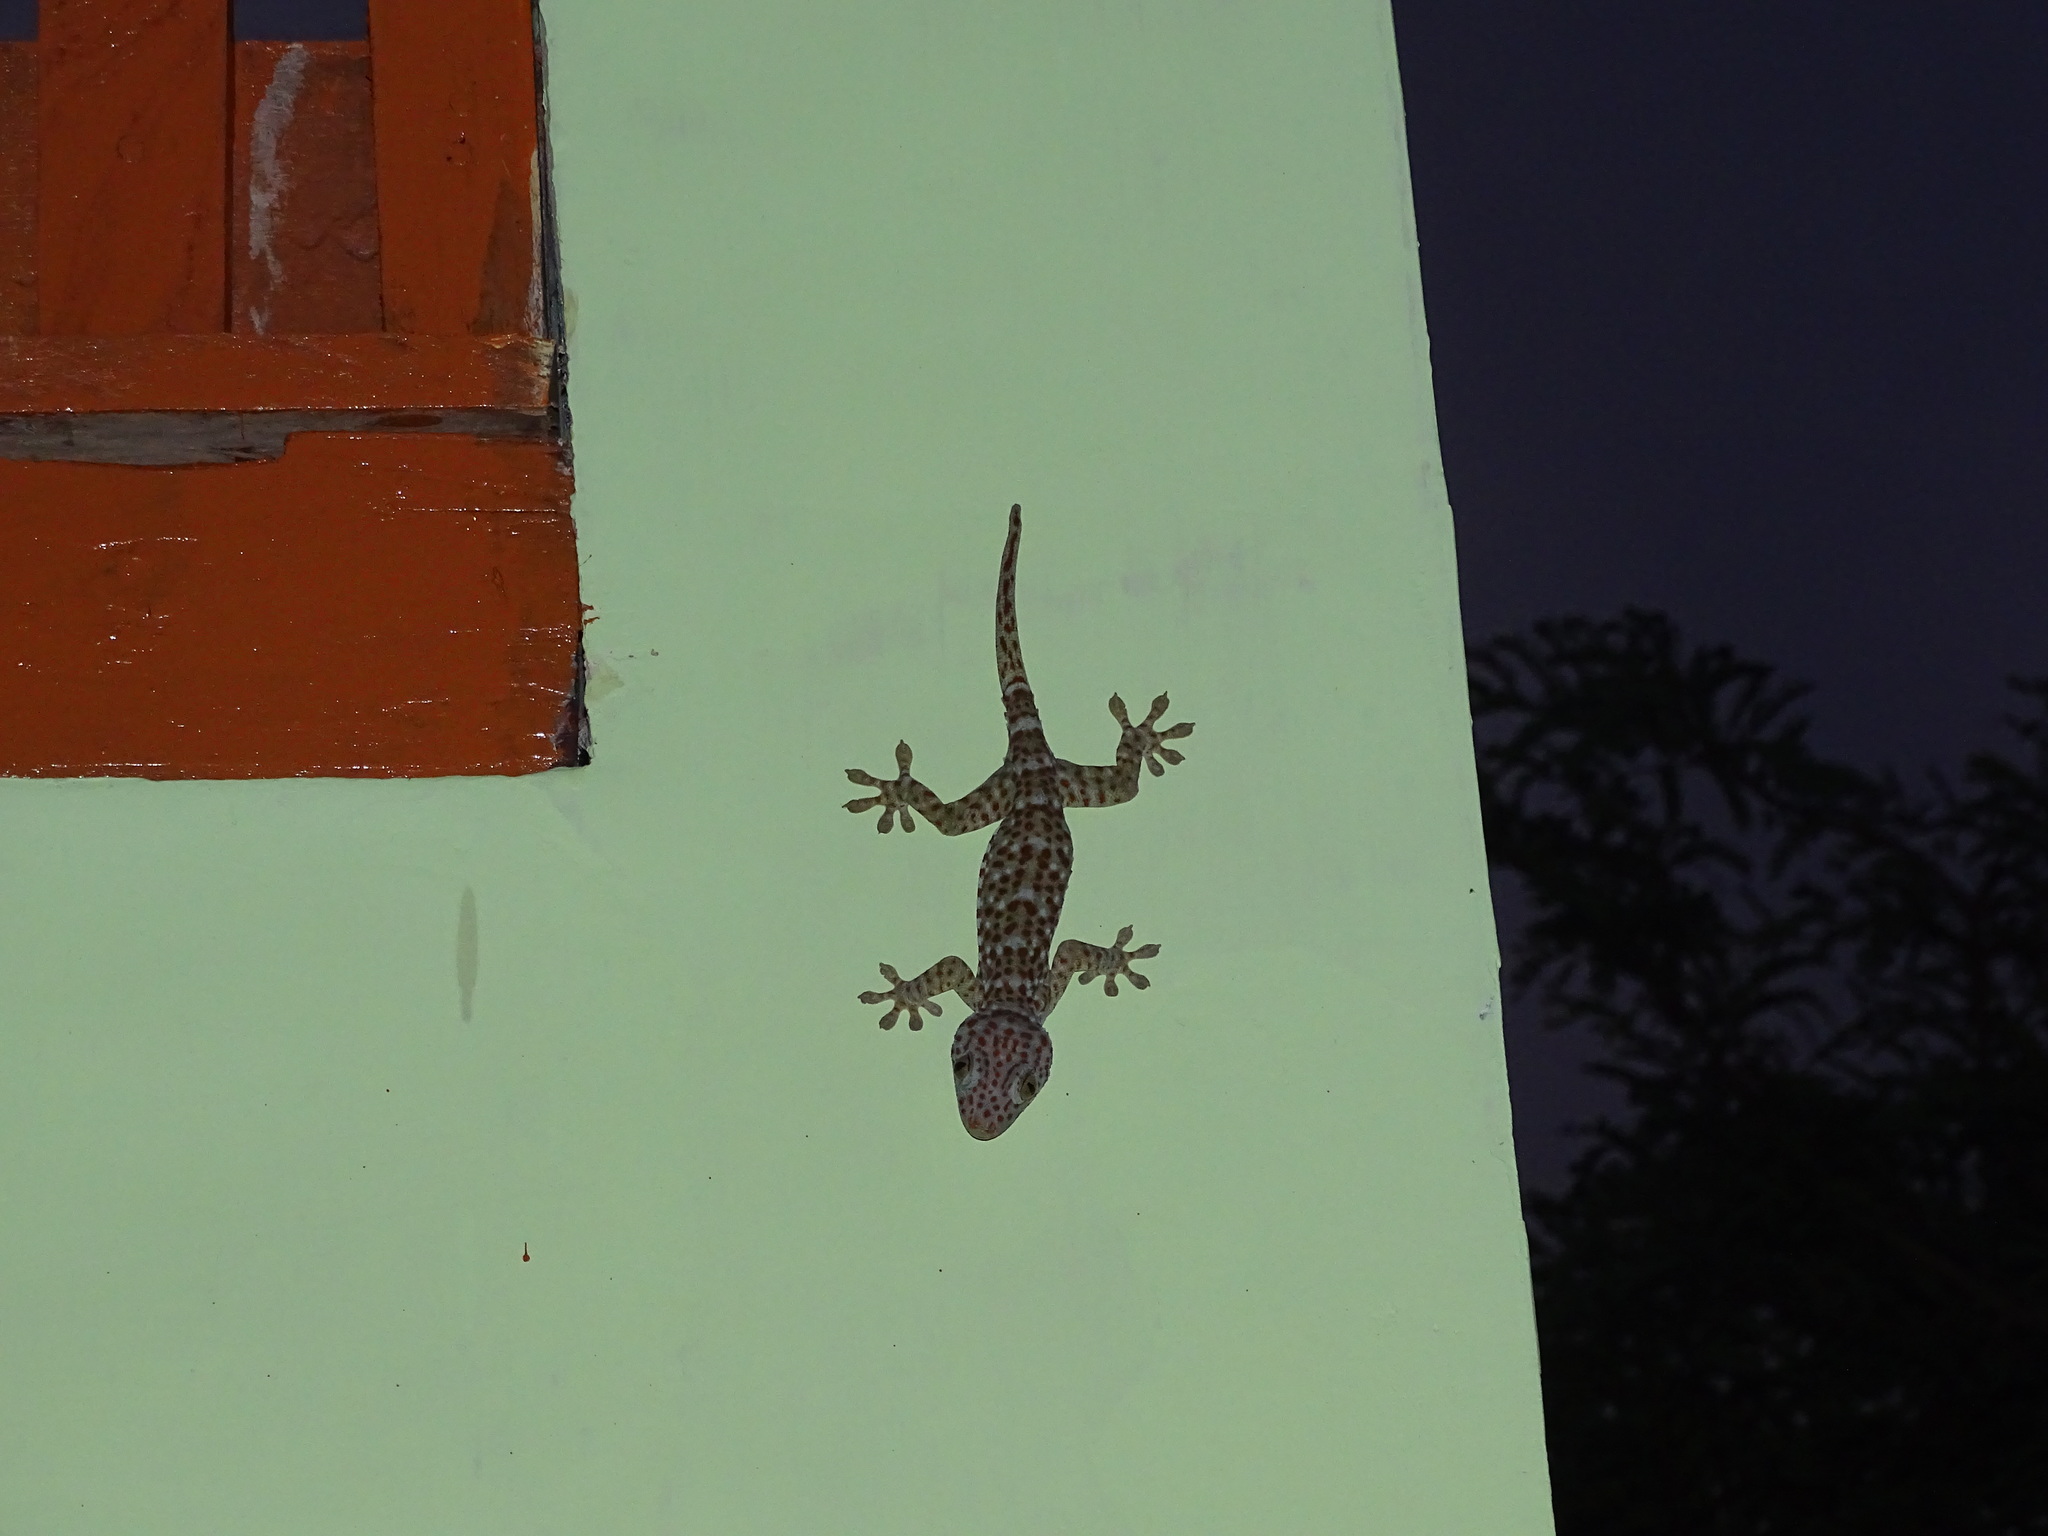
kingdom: Animalia
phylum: Chordata
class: Squamata
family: Gekkonidae
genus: Gekko
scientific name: Gekko gecko
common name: Tokay gecko
